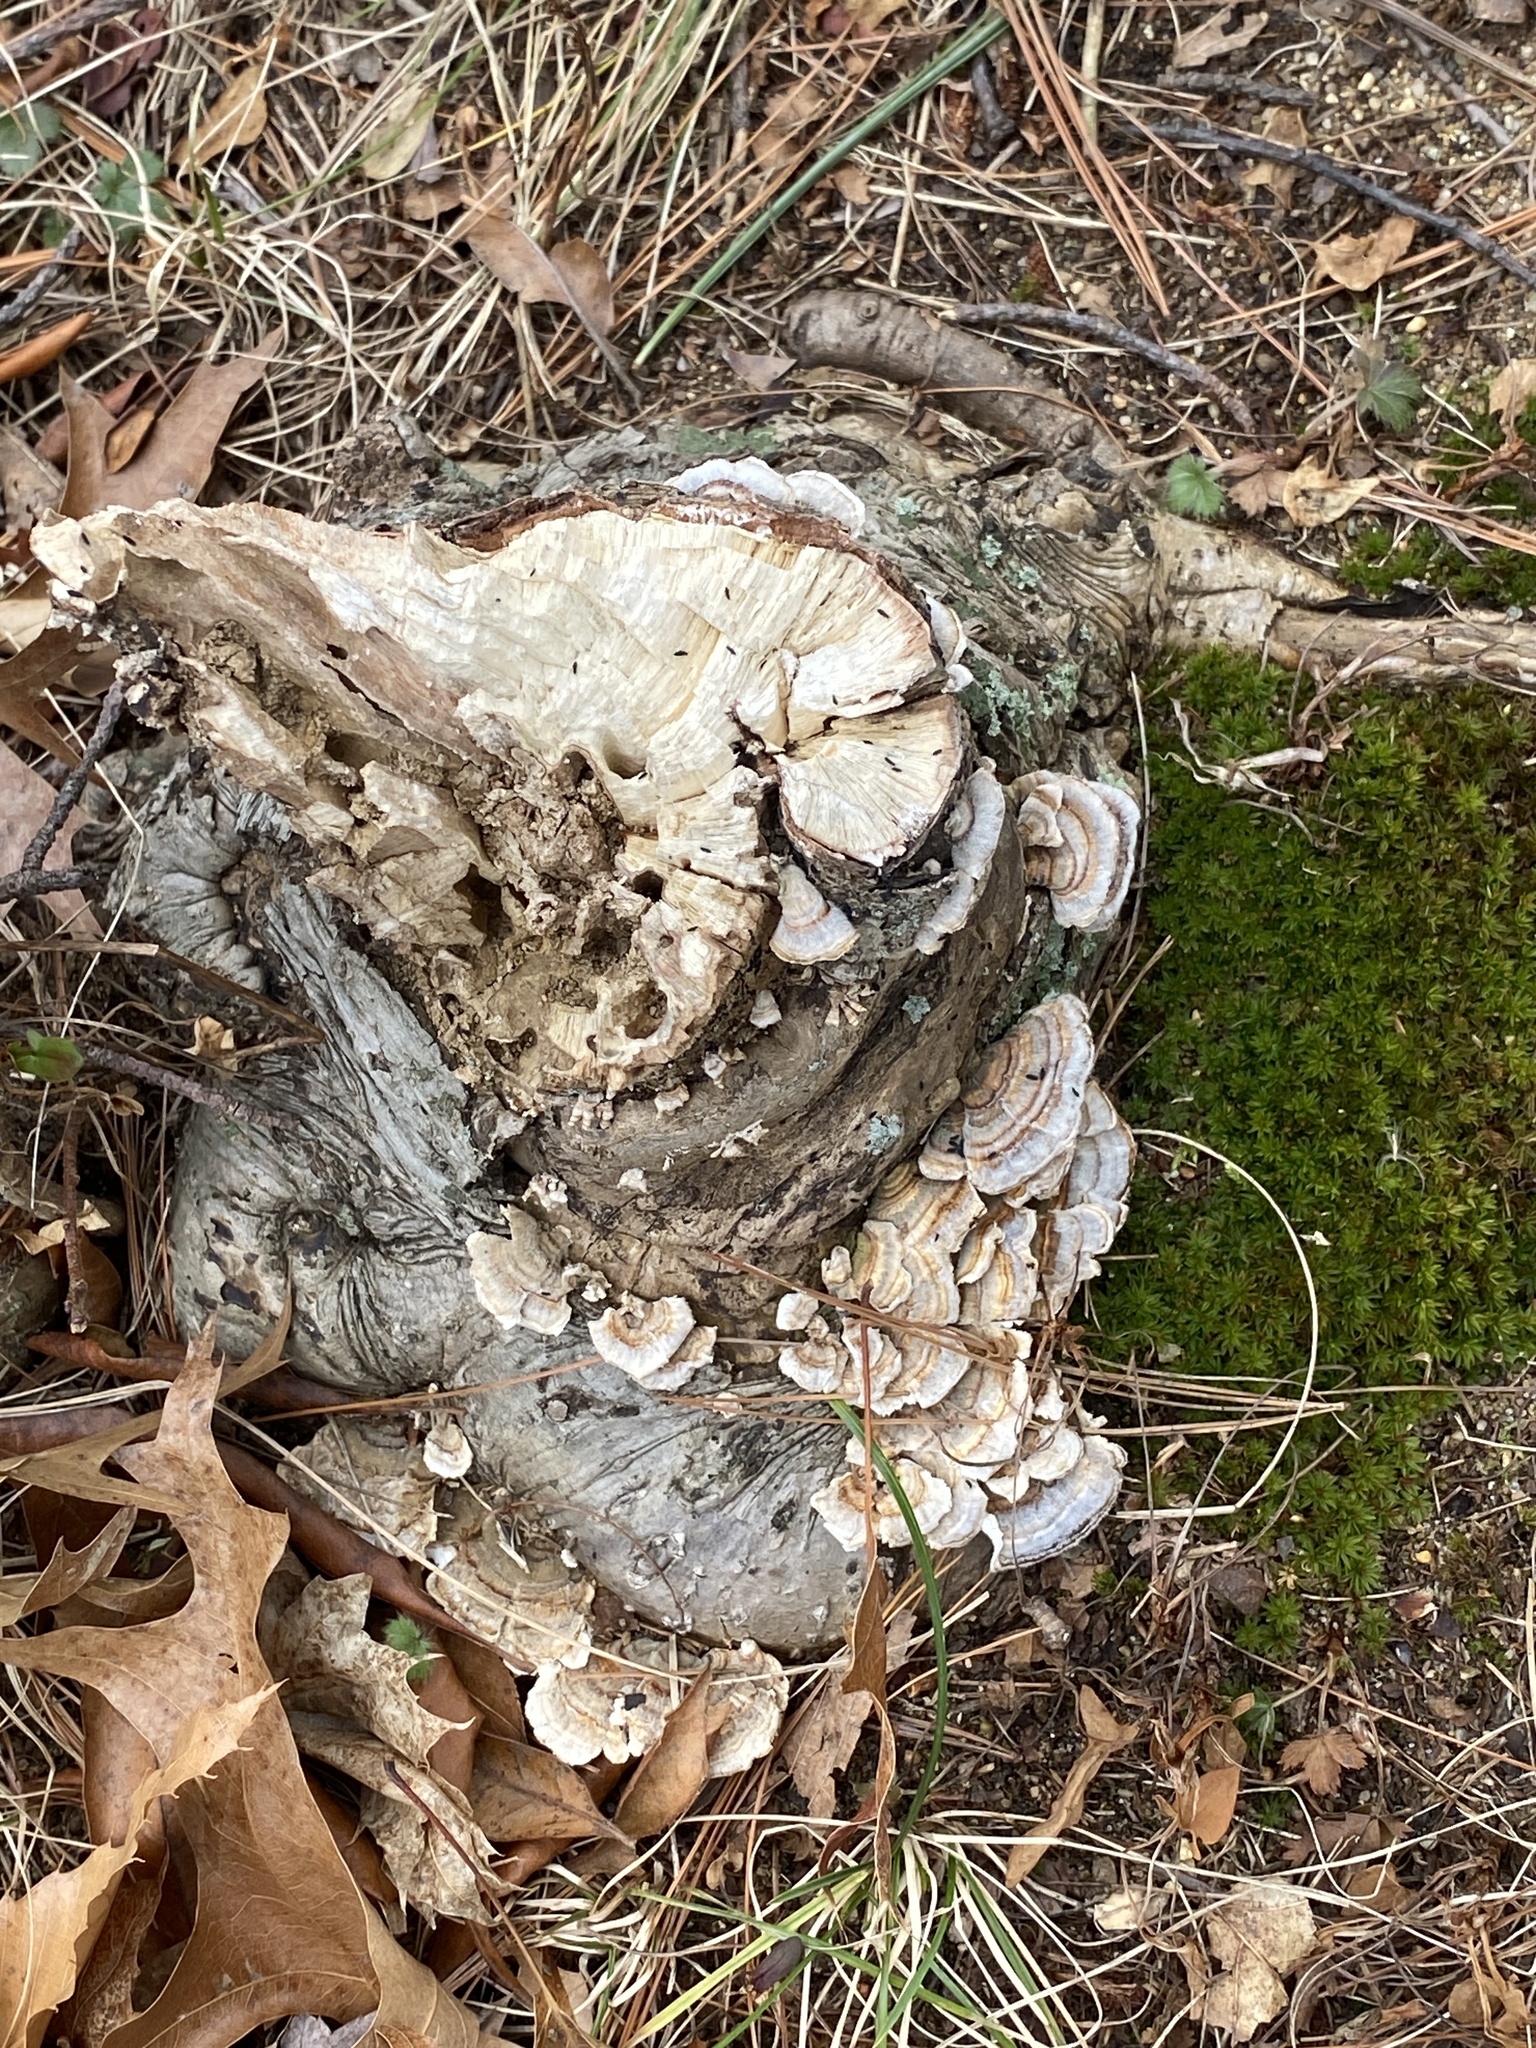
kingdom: Fungi
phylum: Basidiomycota
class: Agaricomycetes
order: Polyporales
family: Polyporaceae
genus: Trametes
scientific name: Trametes versicolor
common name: Turkeytail
